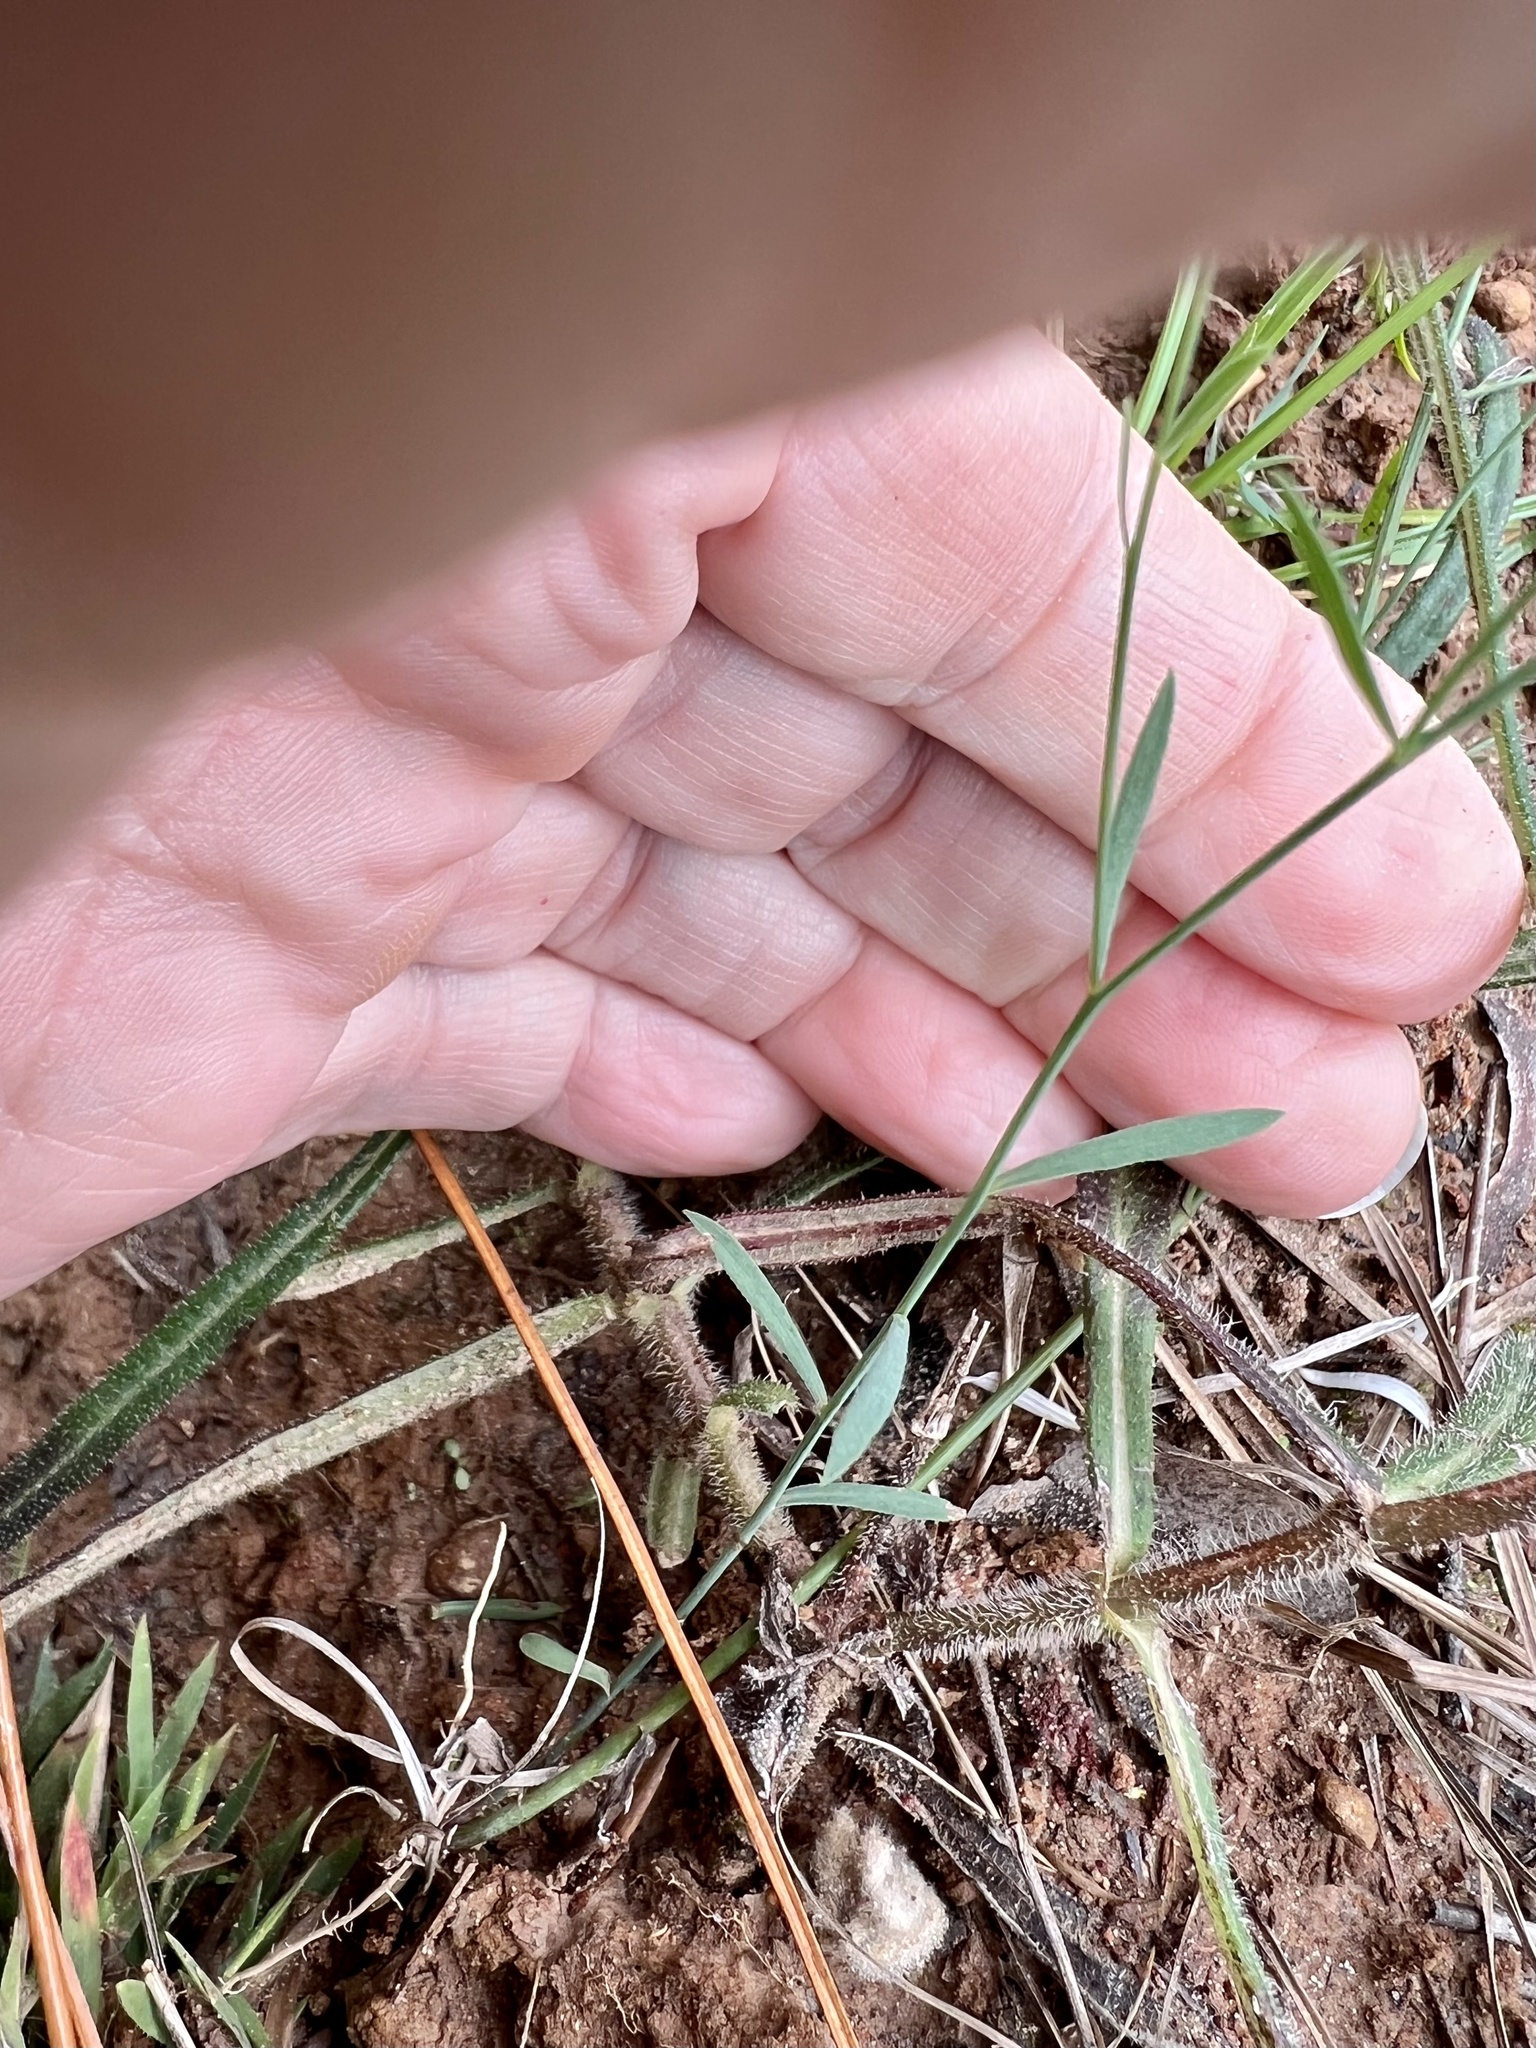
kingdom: Plantae
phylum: Tracheophyta
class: Magnoliopsida
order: Asterales
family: Asteraceae
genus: Boltonia
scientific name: Boltonia diffusa
